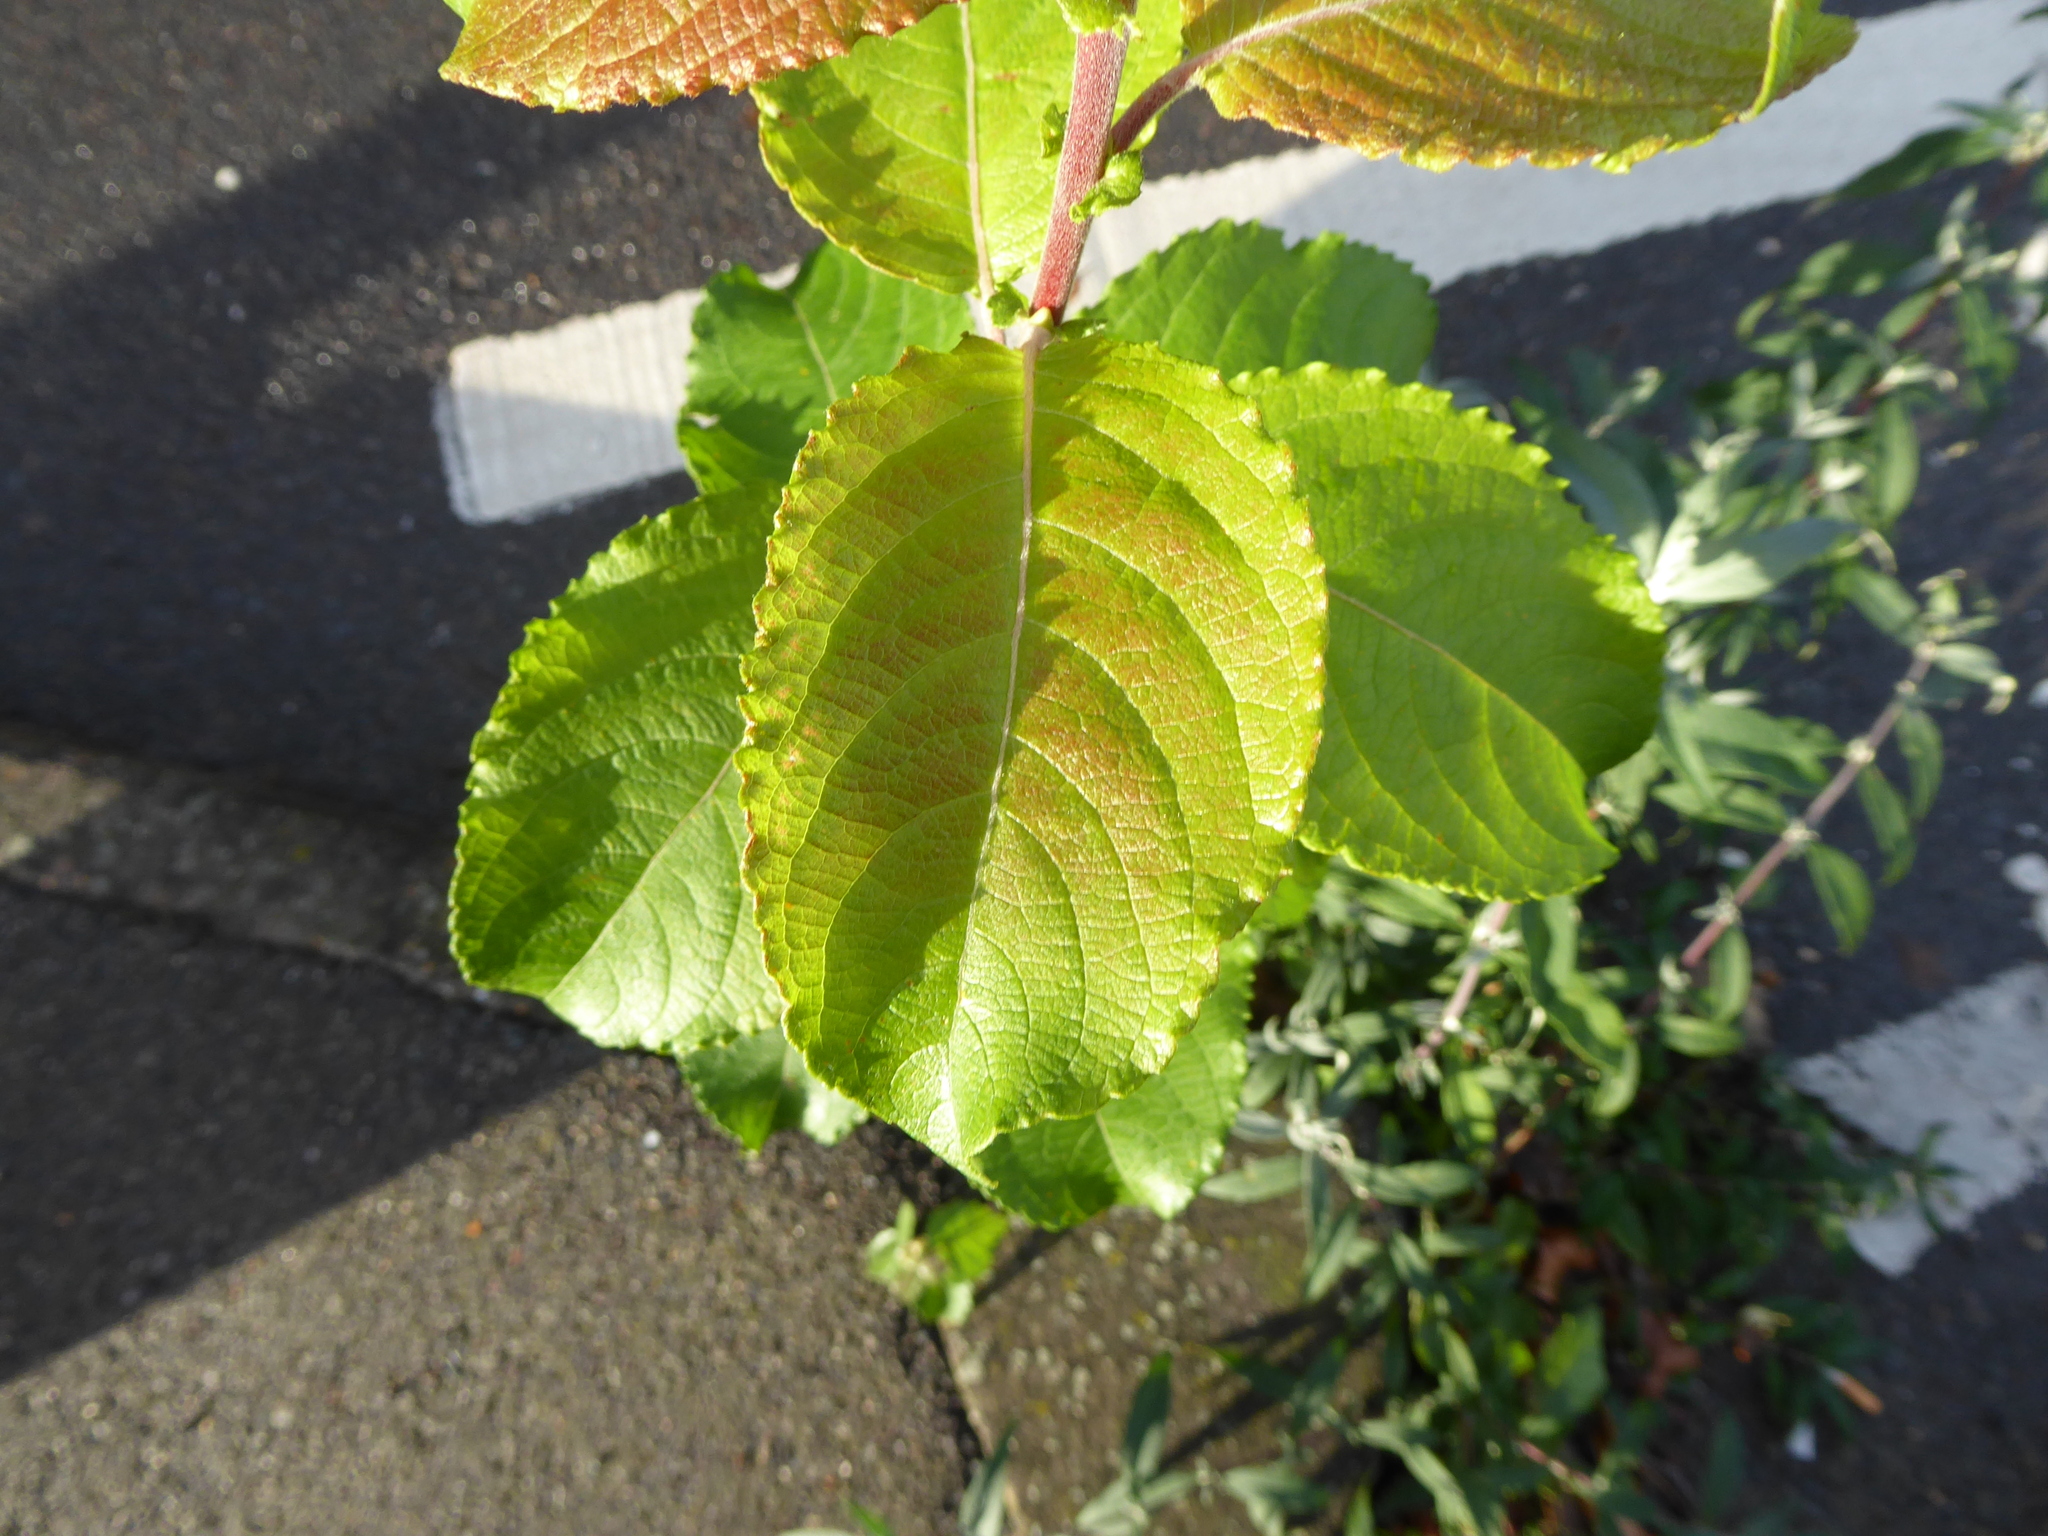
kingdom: Plantae
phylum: Tracheophyta
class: Magnoliopsida
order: Malpighiales
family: Salicaceae
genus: Salix
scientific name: Salix caprea
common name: Goat willow
